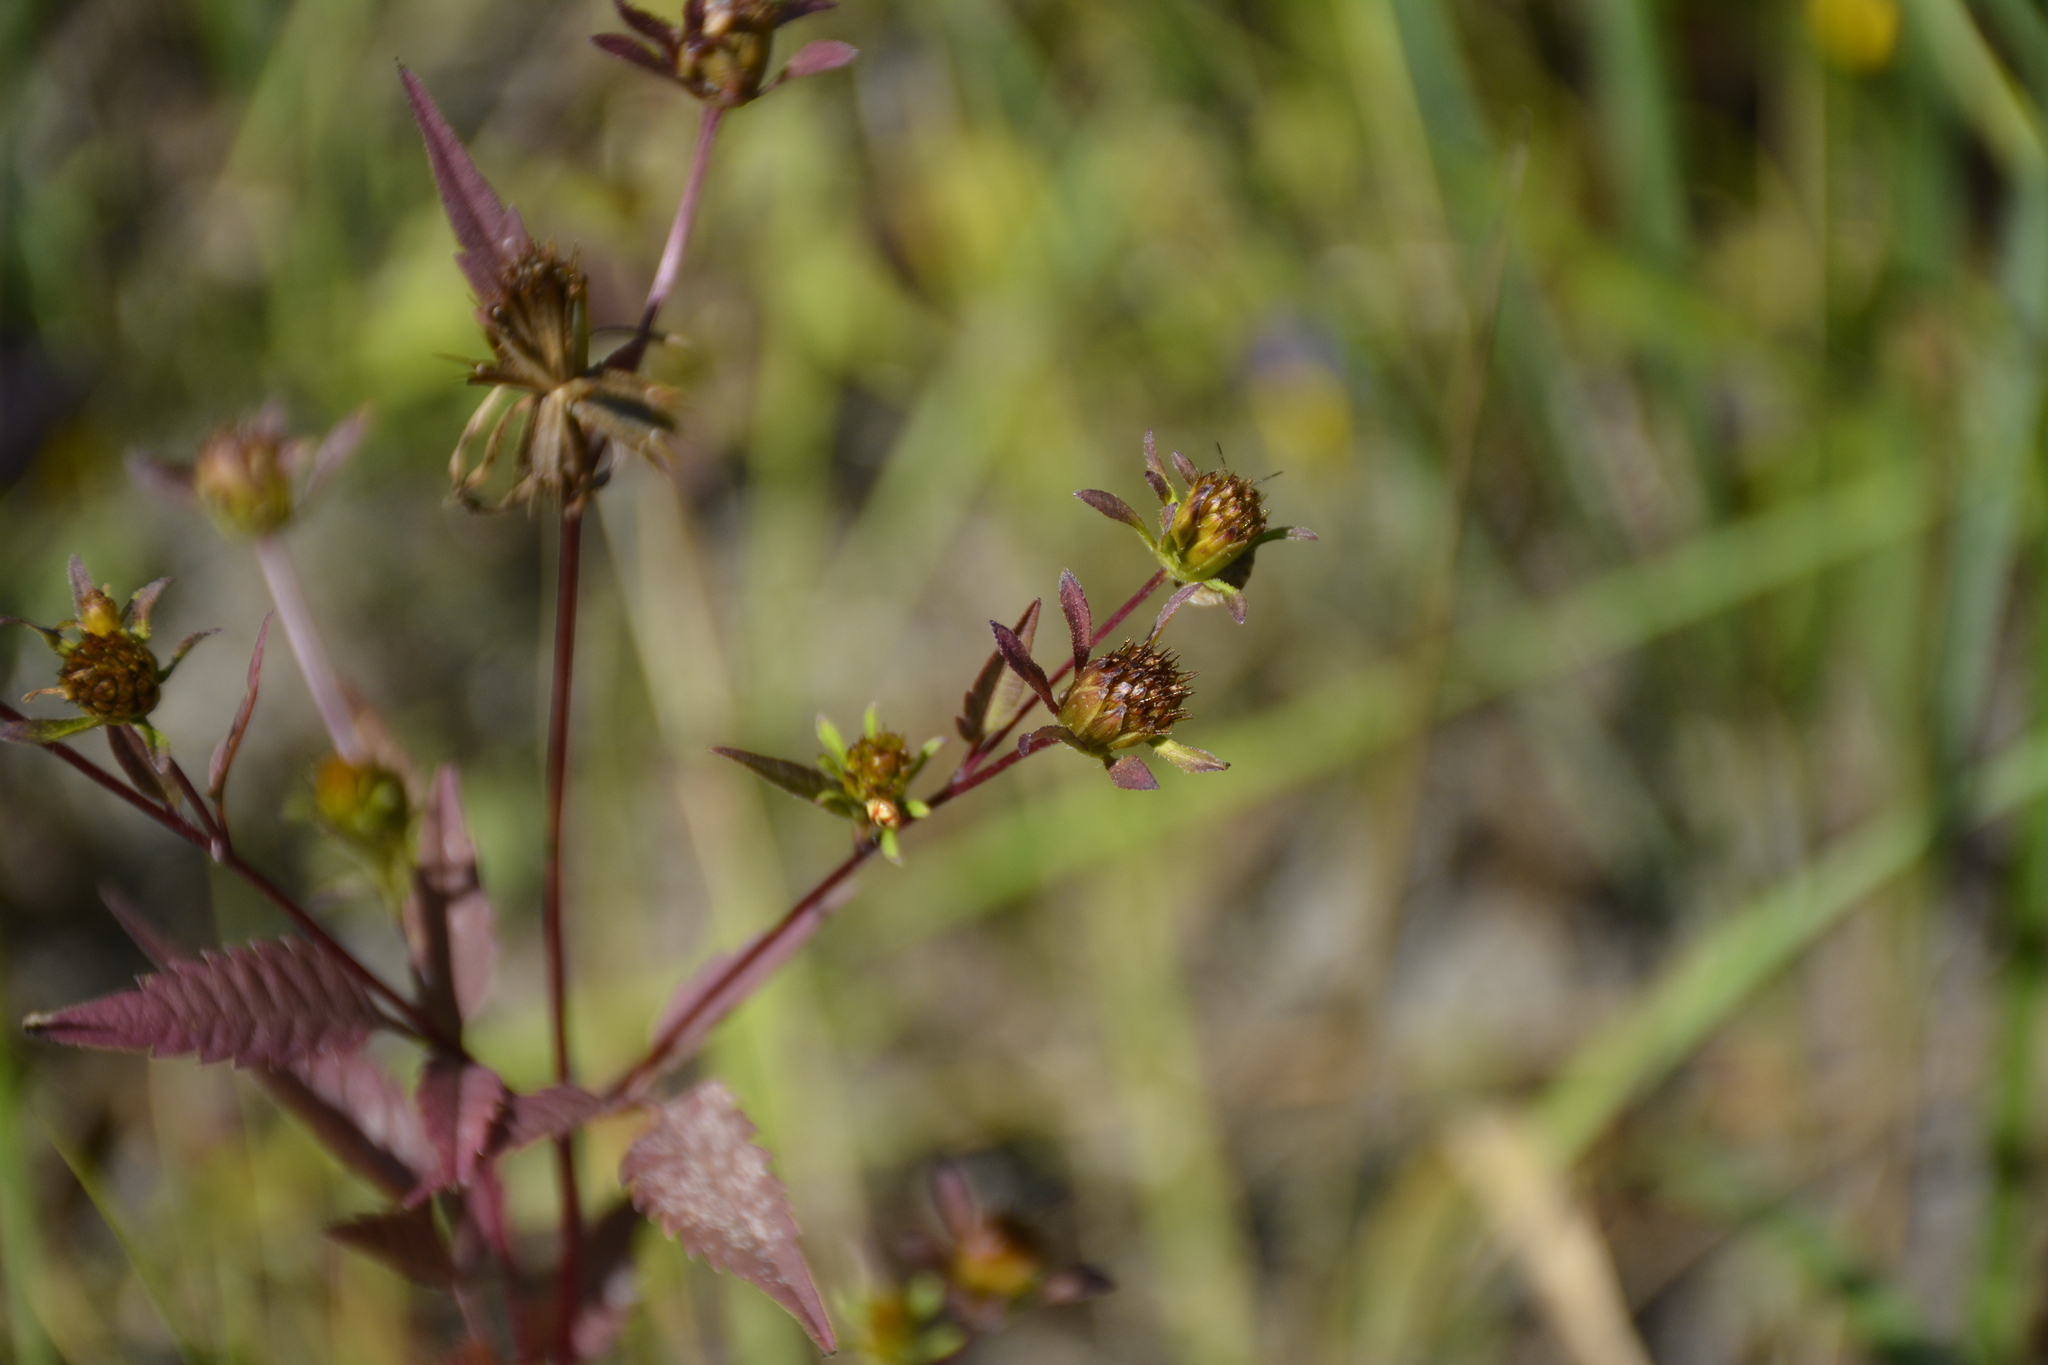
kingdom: Plantae
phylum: Tracheophyta
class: Magnoliopsida
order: Asterales
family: Asteraceae
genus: Bidens
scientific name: Bidens frondosa
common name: Beggarticks
